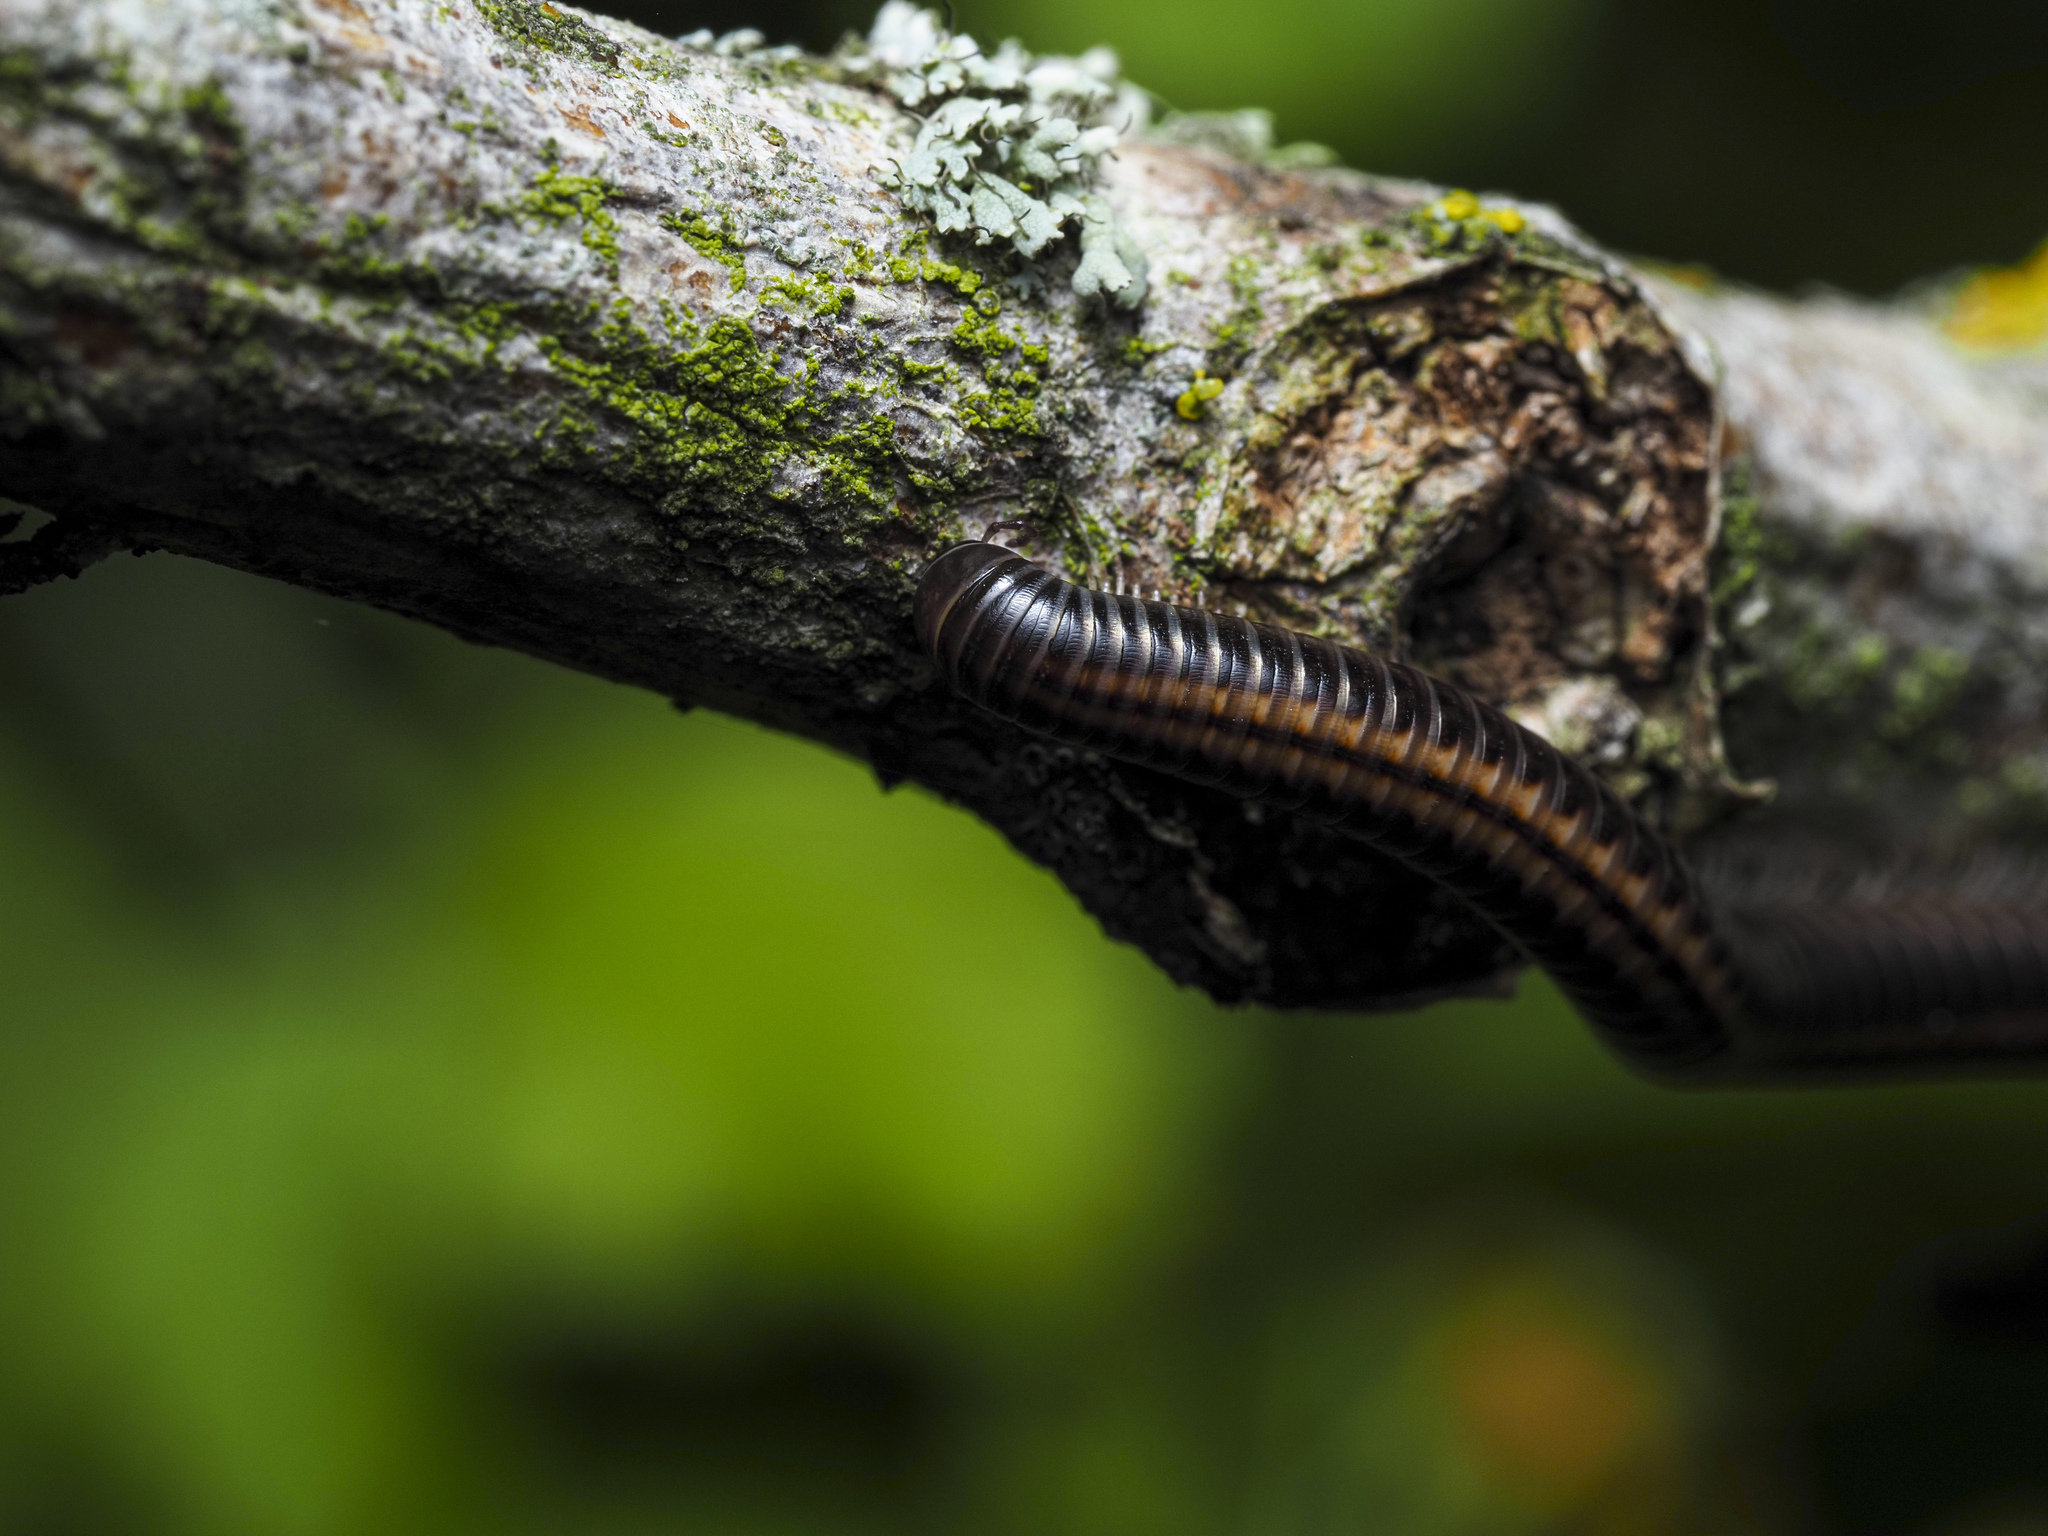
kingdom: Animalia
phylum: Arthropoda
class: Diplopoda
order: Julida
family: Julidae
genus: Ommatoiulus
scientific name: Ommatoiulus sabulosus
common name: Striped millipede
